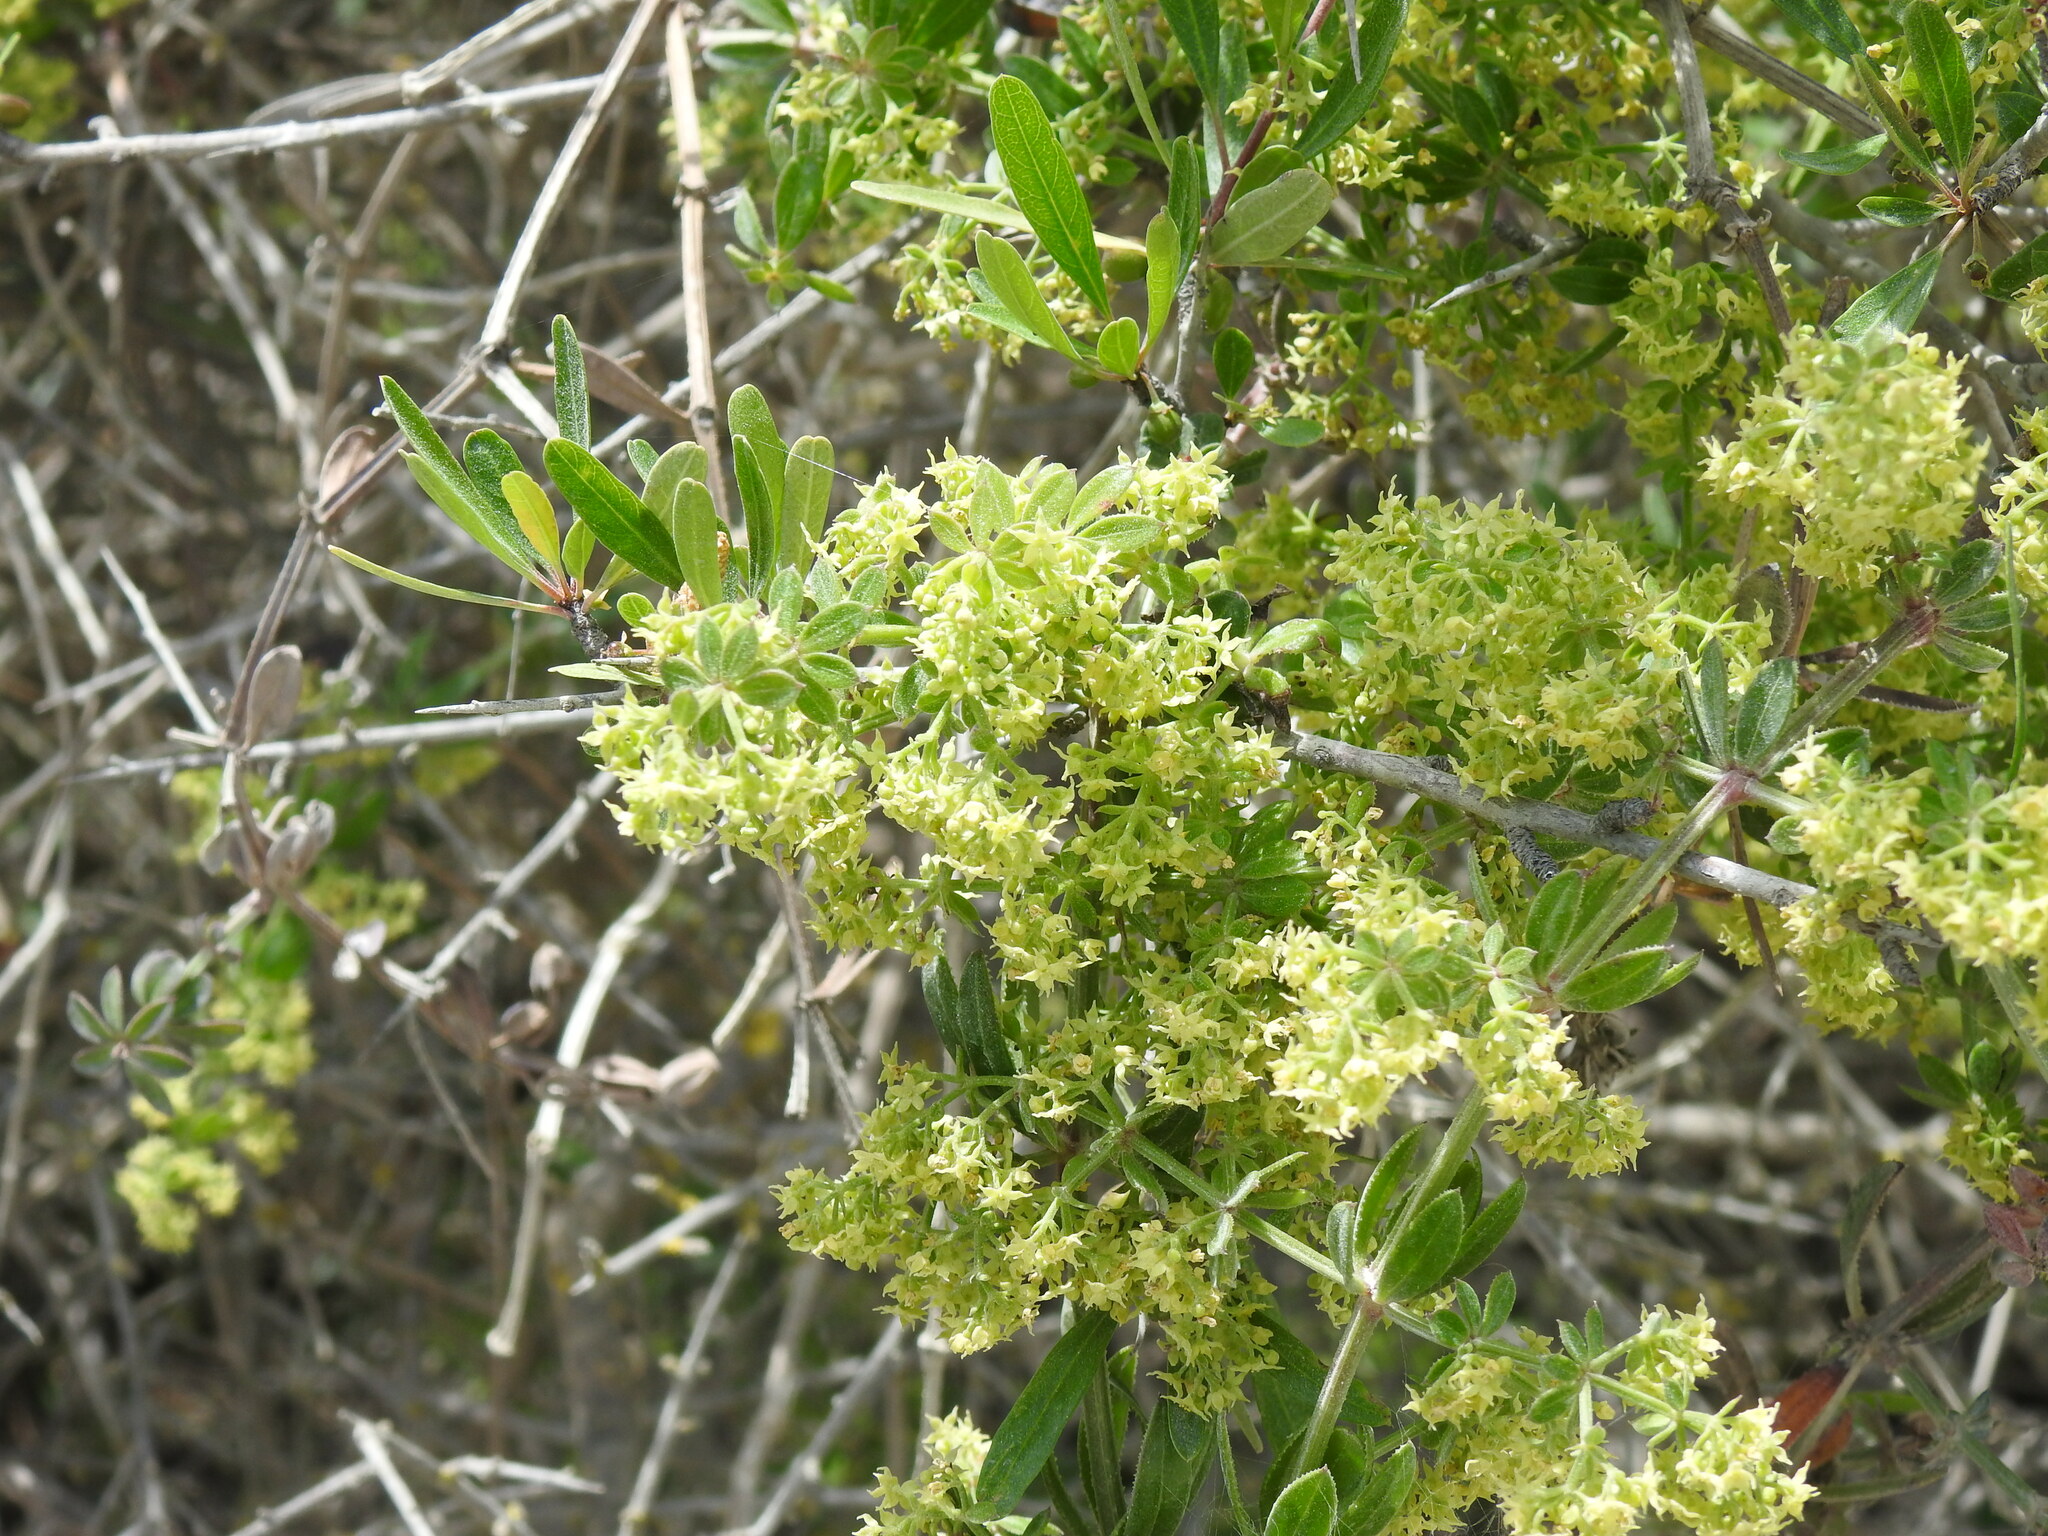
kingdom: Plantae
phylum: Tracheophyta
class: Magnoliopsida
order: Gentianales
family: Rubiaceae
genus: Rubia
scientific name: Rubia peregrina
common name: Wild madder
